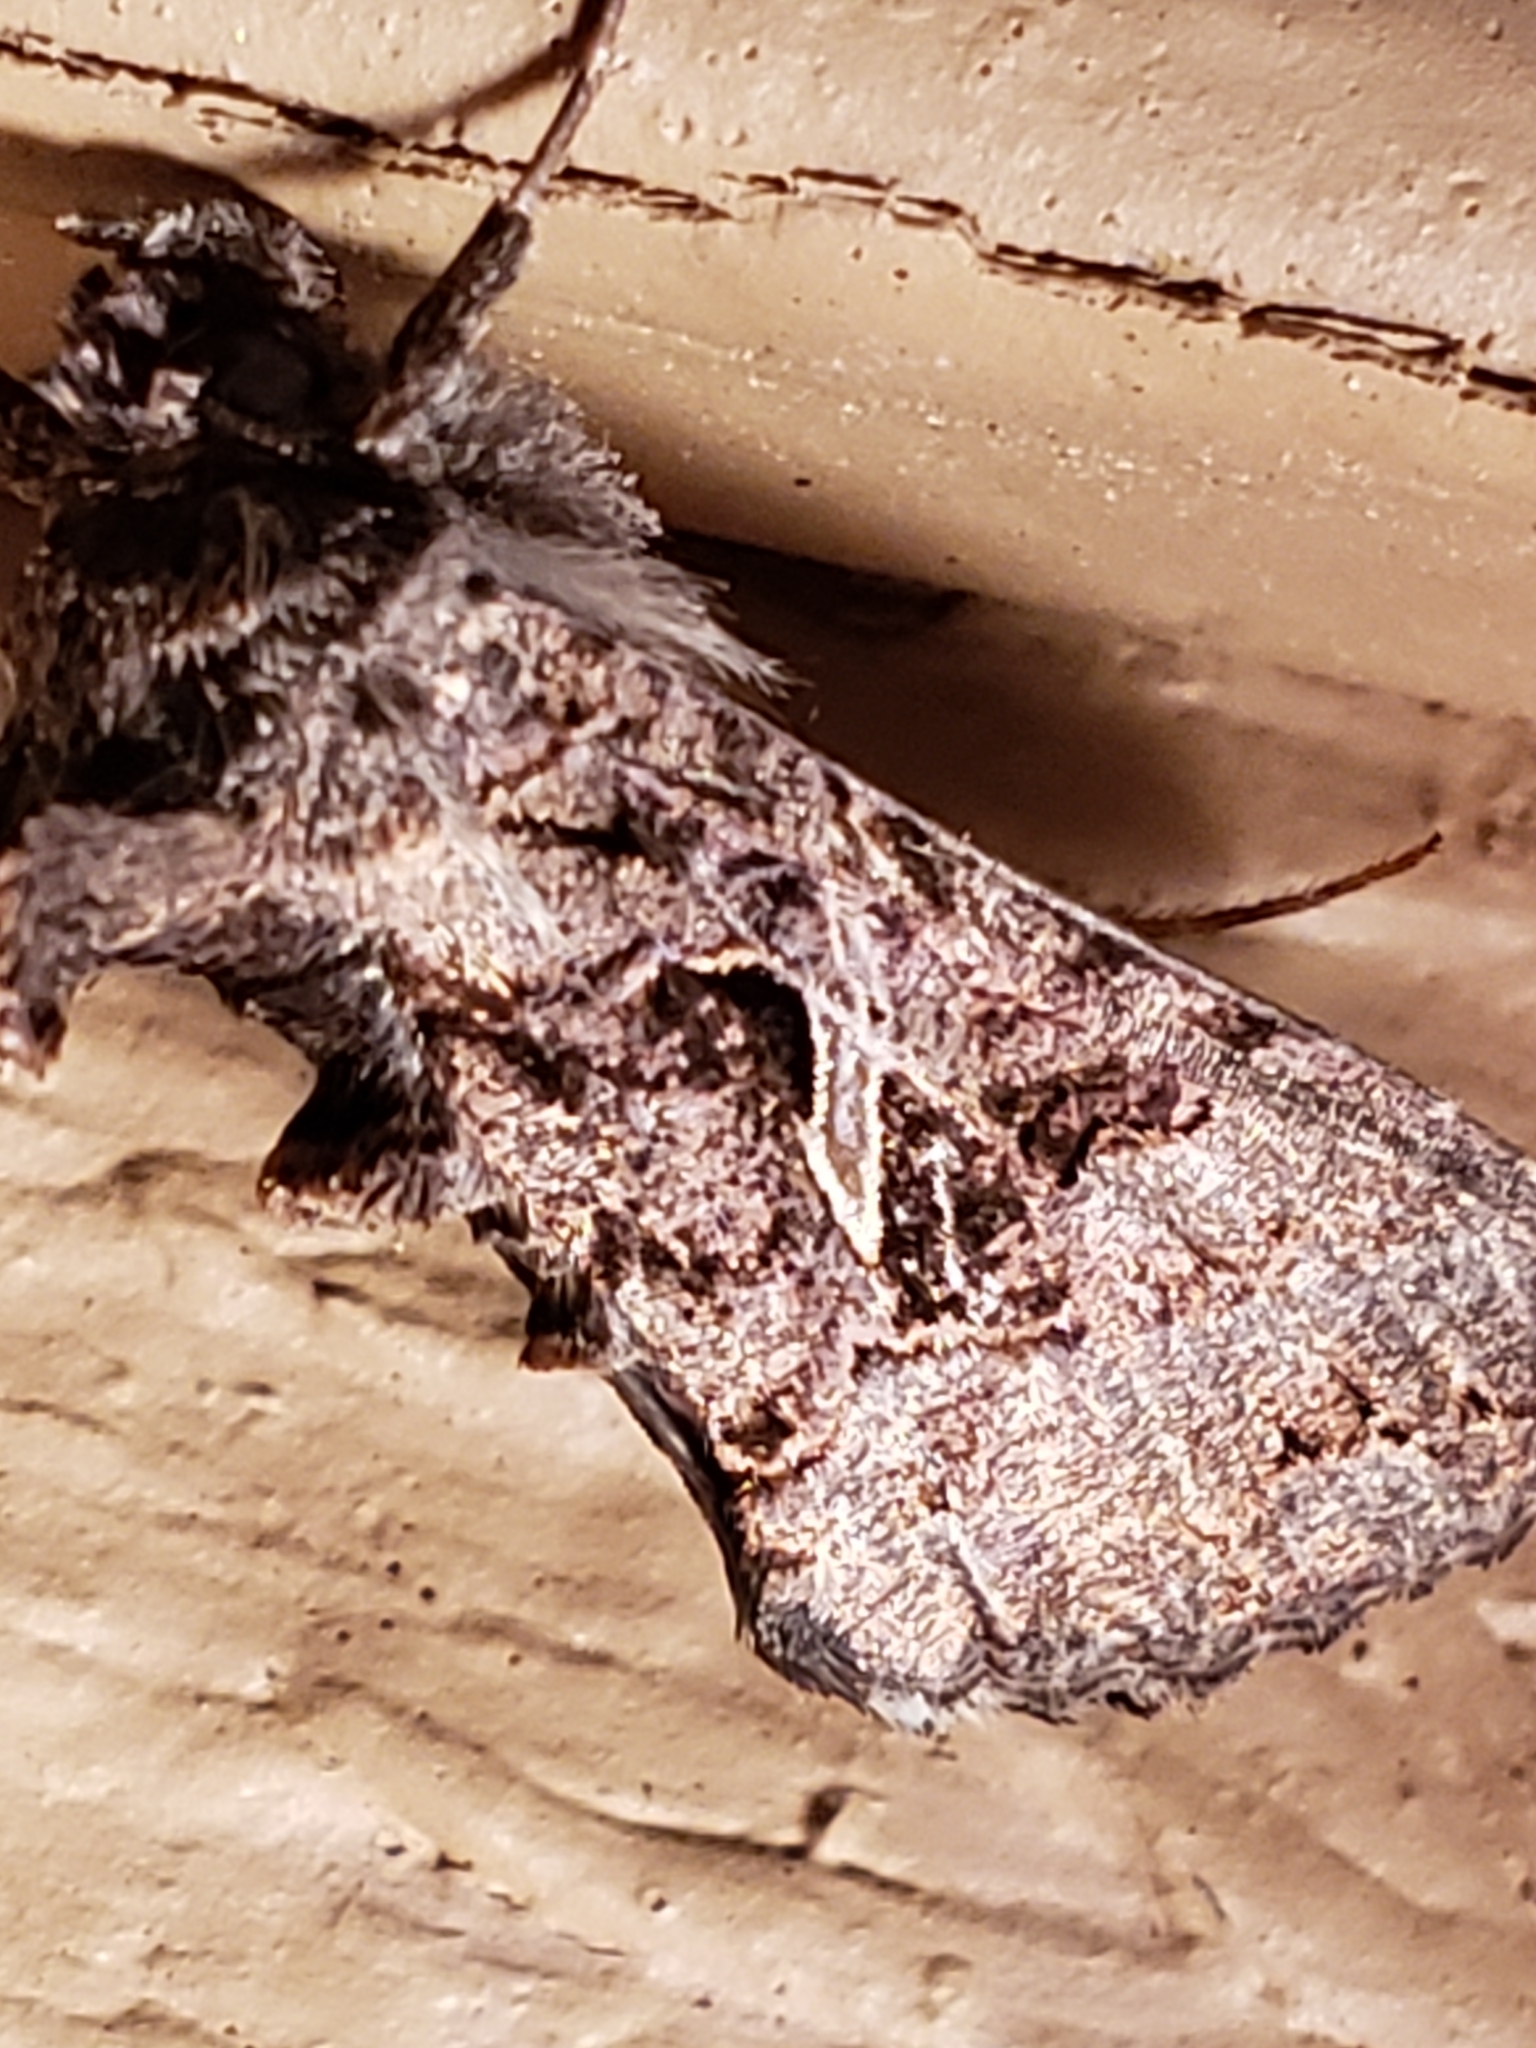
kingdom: Animalia
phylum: Arthropoda
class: Insecta
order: Lepidoptera
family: Noctuidae
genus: Ctenoplusia
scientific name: Ctenoplusia oxygramma
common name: Sharp-stigma looper moth
